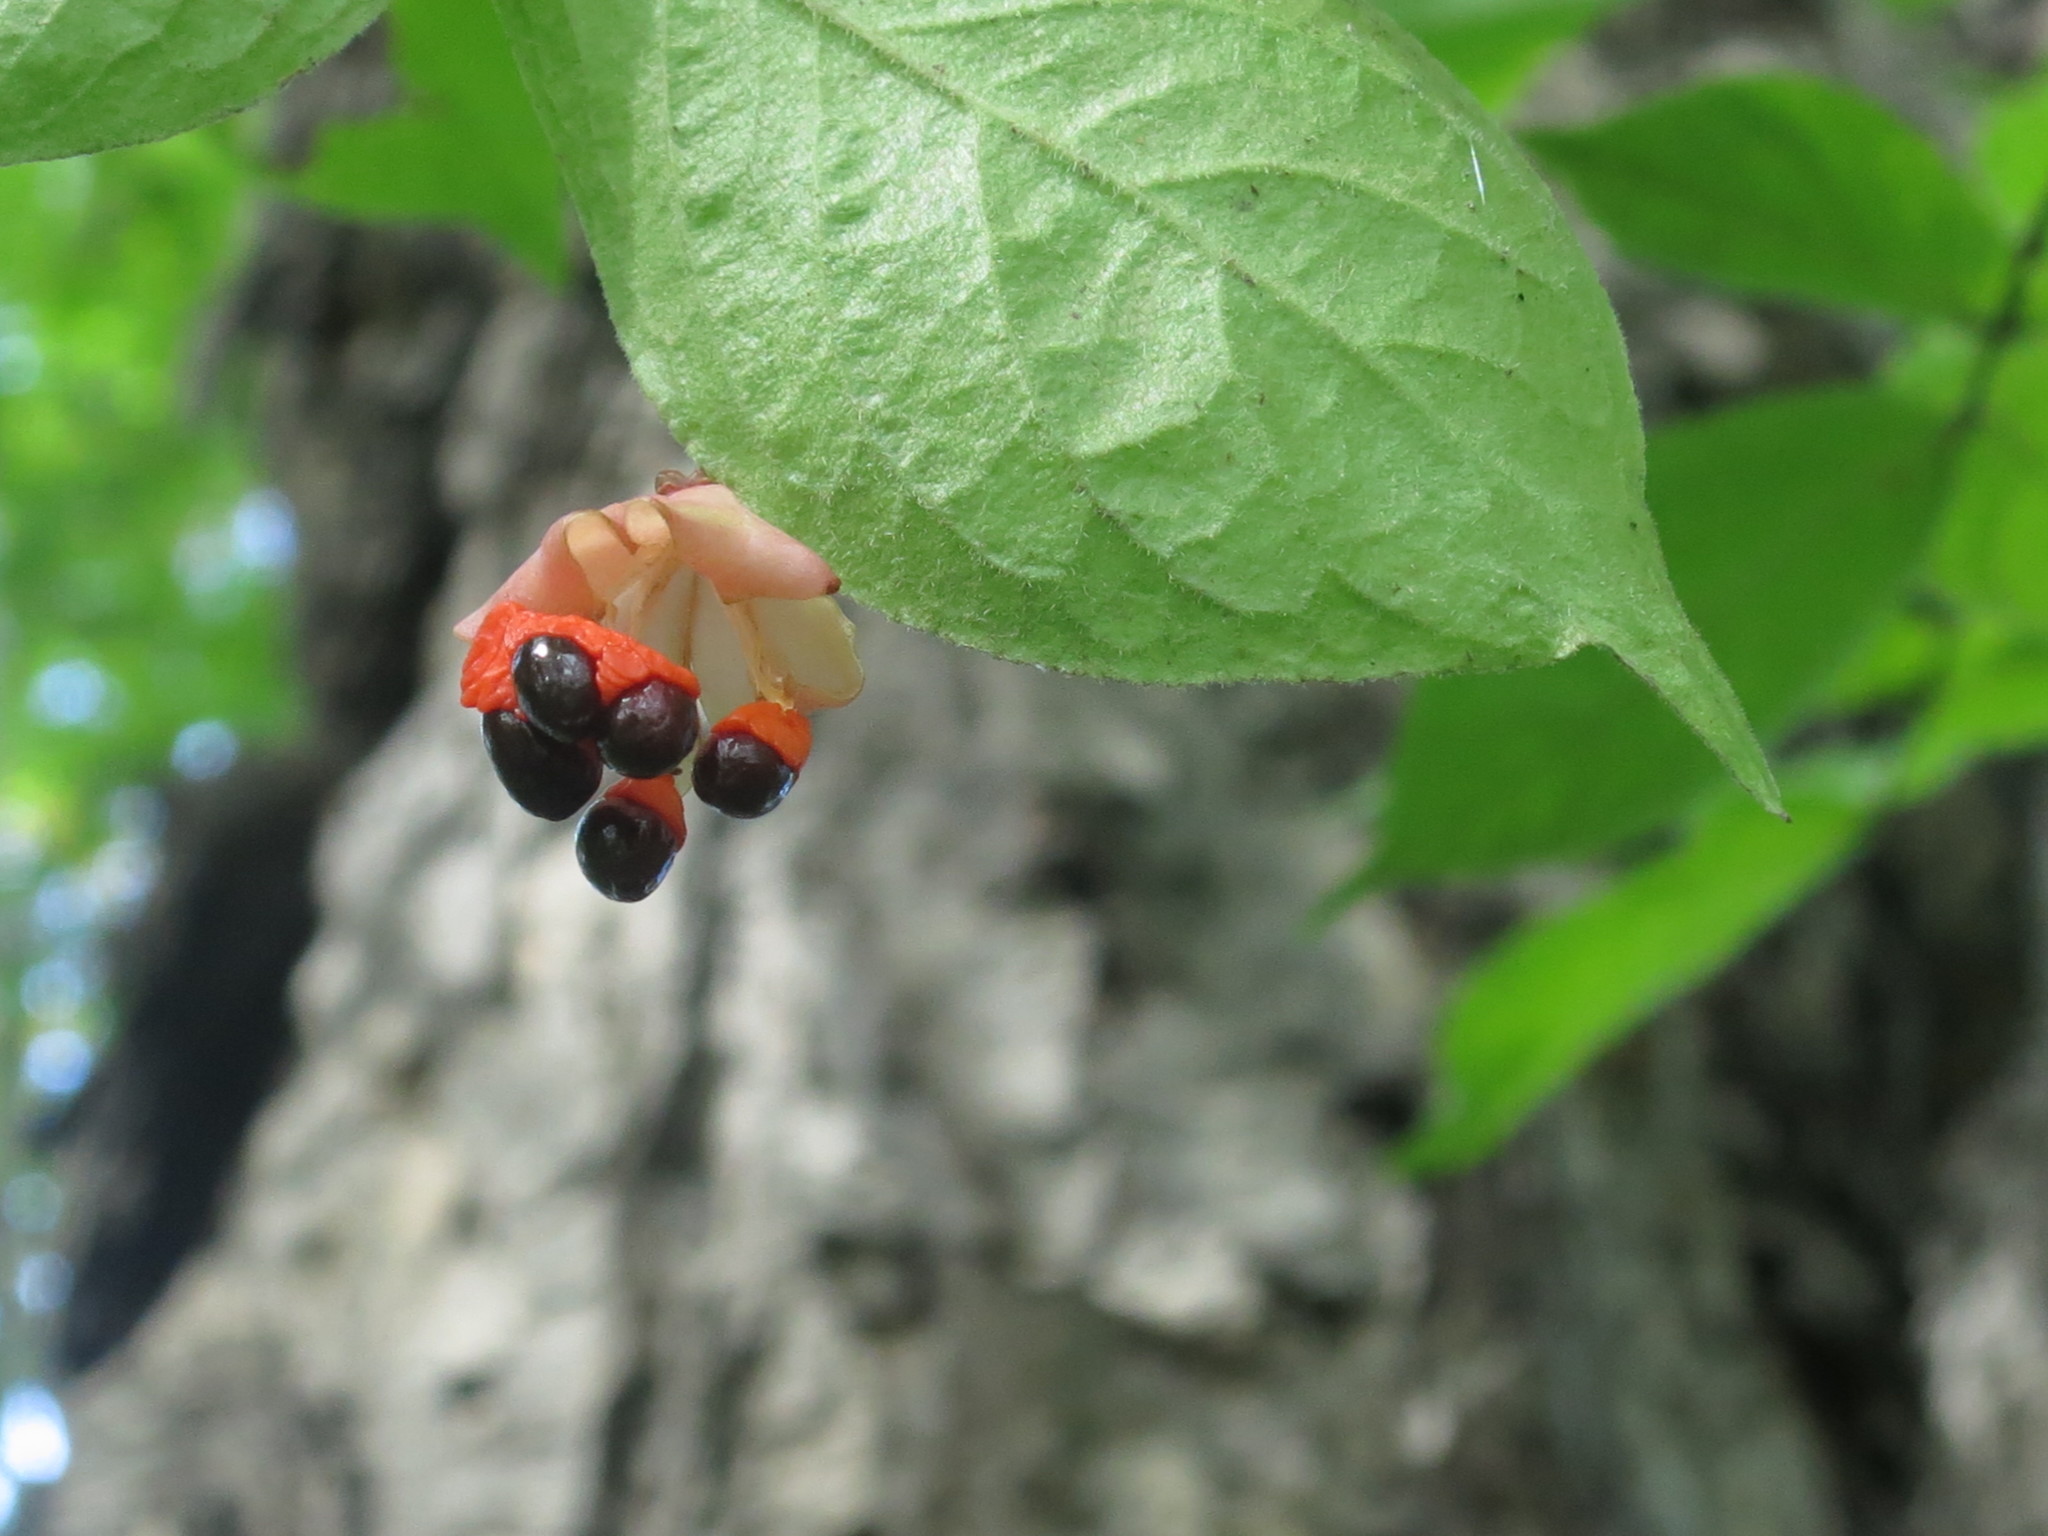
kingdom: Plantae
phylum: Tracheophyta
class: Magnoliopsida
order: Celastrales
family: Celastraceae
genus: Euonymus
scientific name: Euonymus verrucosus
